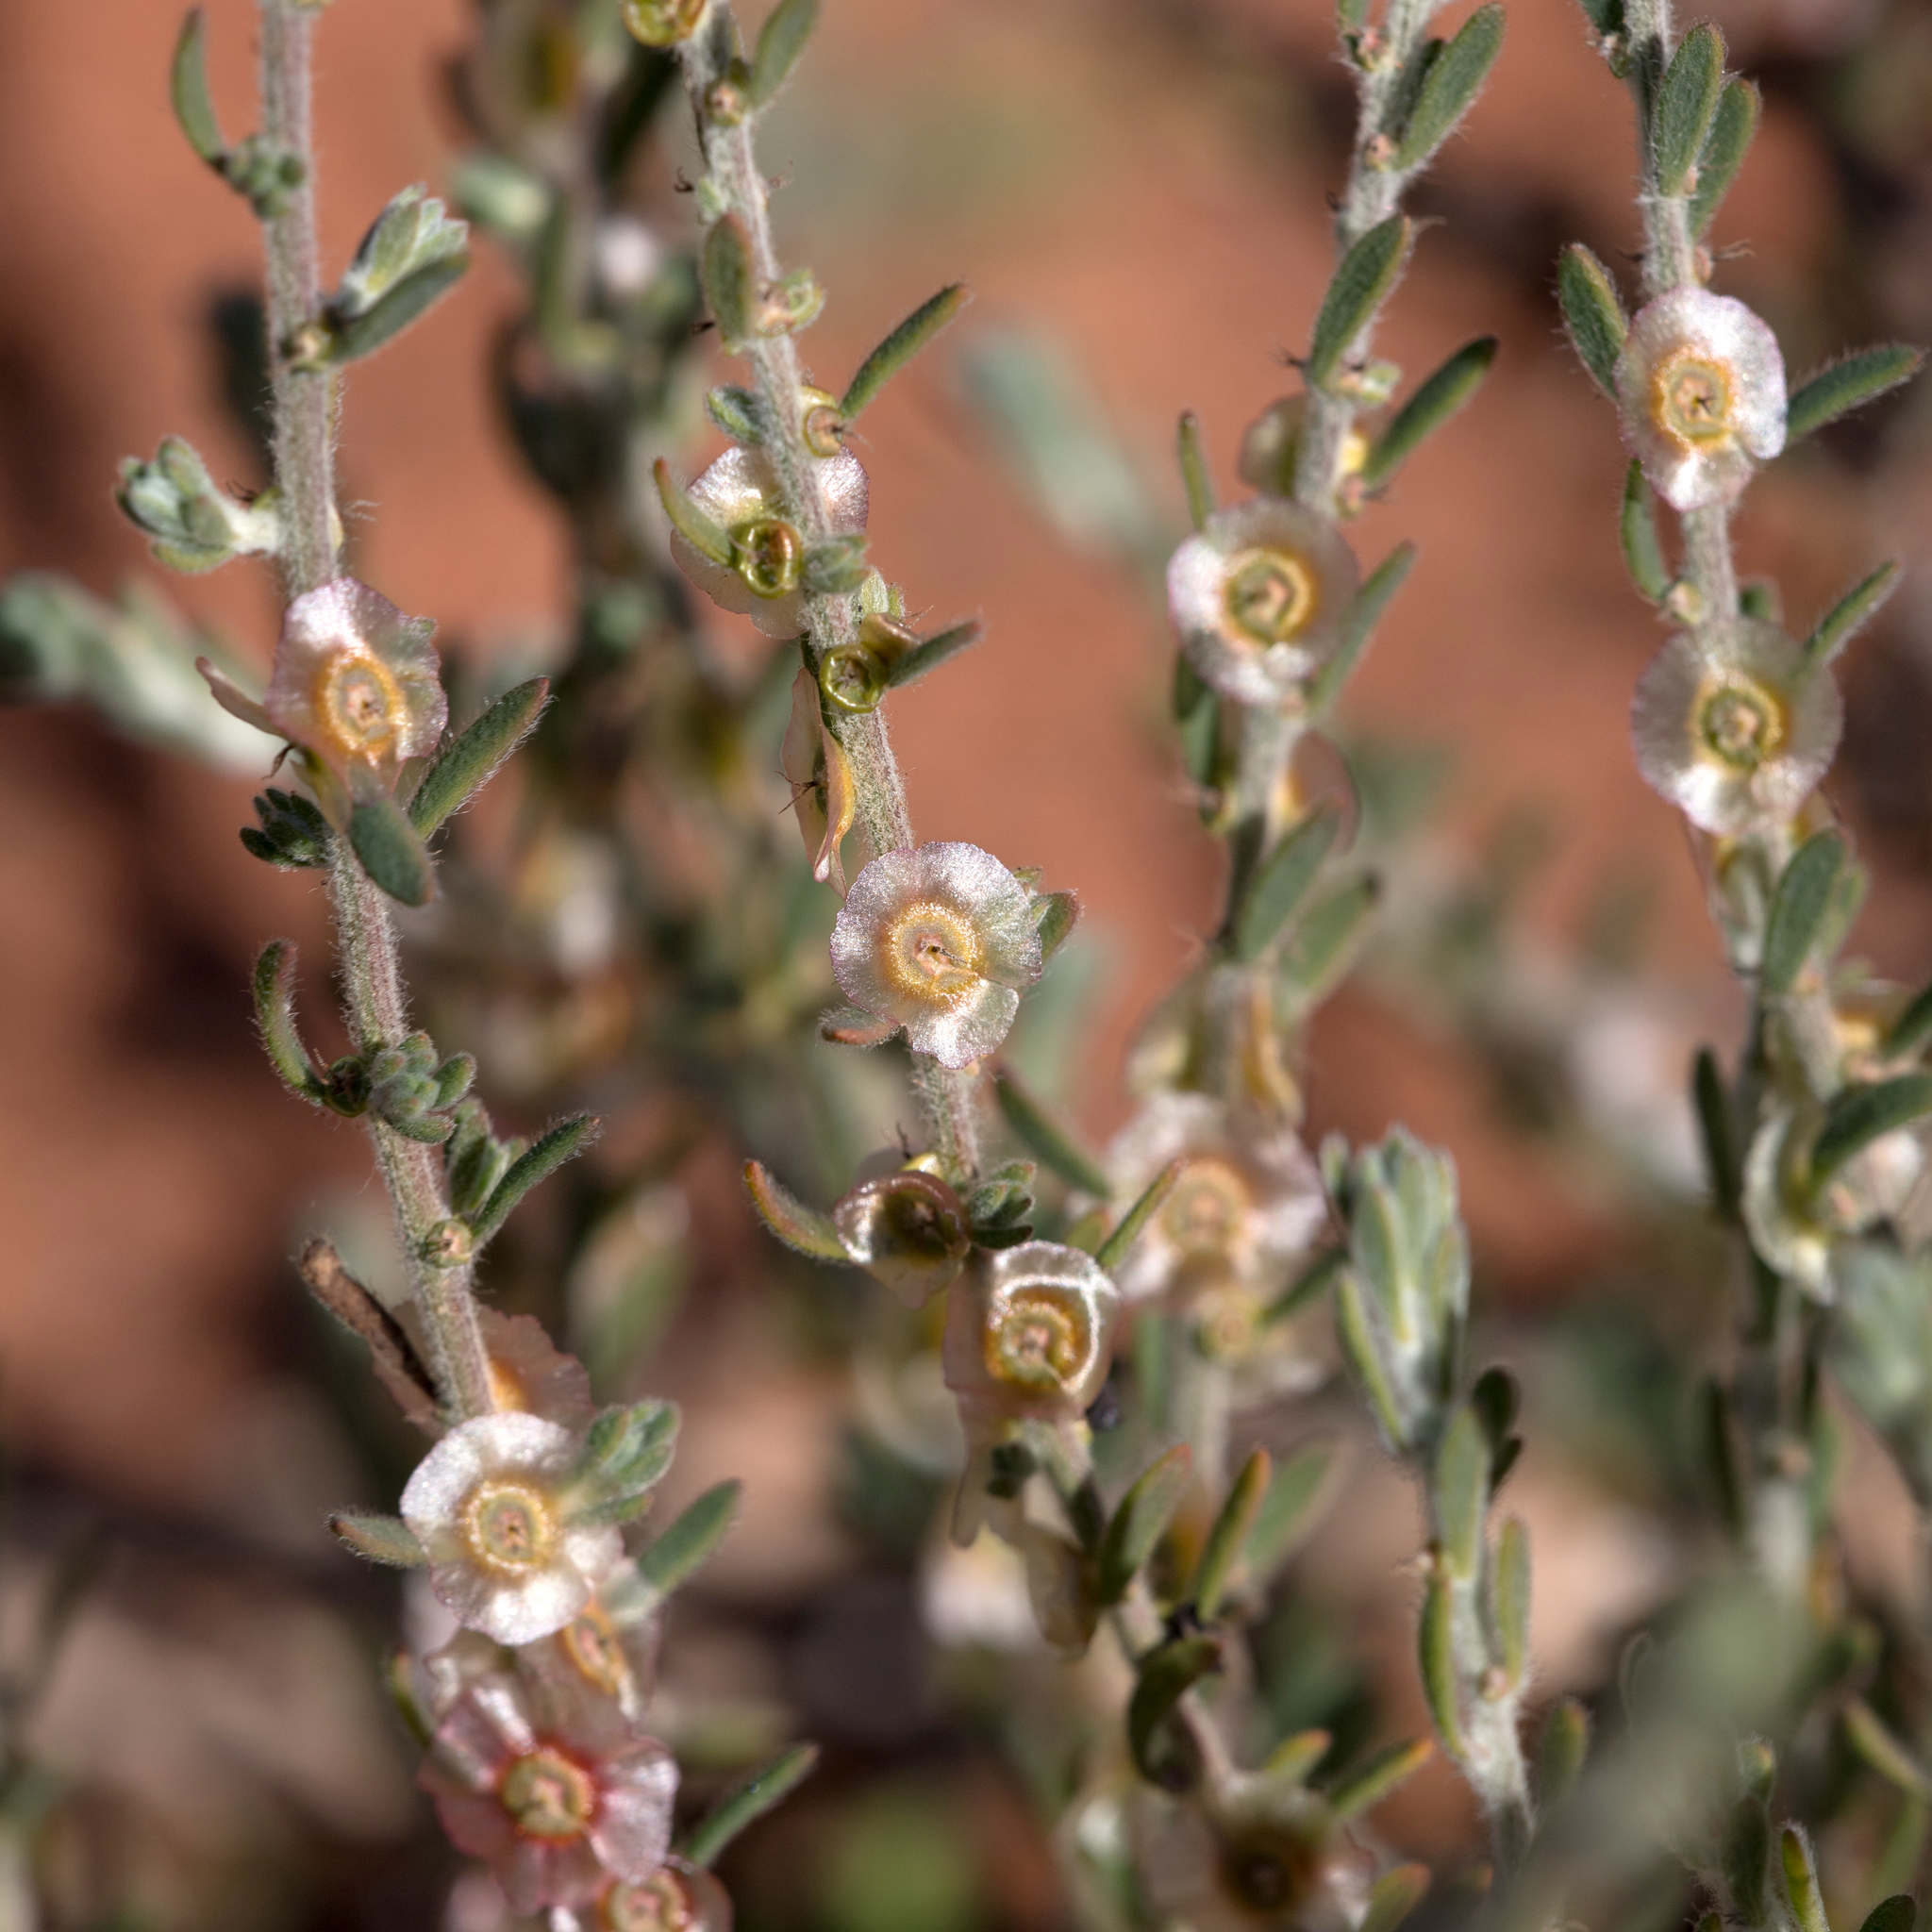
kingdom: Plantae
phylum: Tracheophyta
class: Magnoliopsida
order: Caryophyllales
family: Amaranthaceae
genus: Maireana
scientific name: Maireana villosa
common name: Silky bluebush
